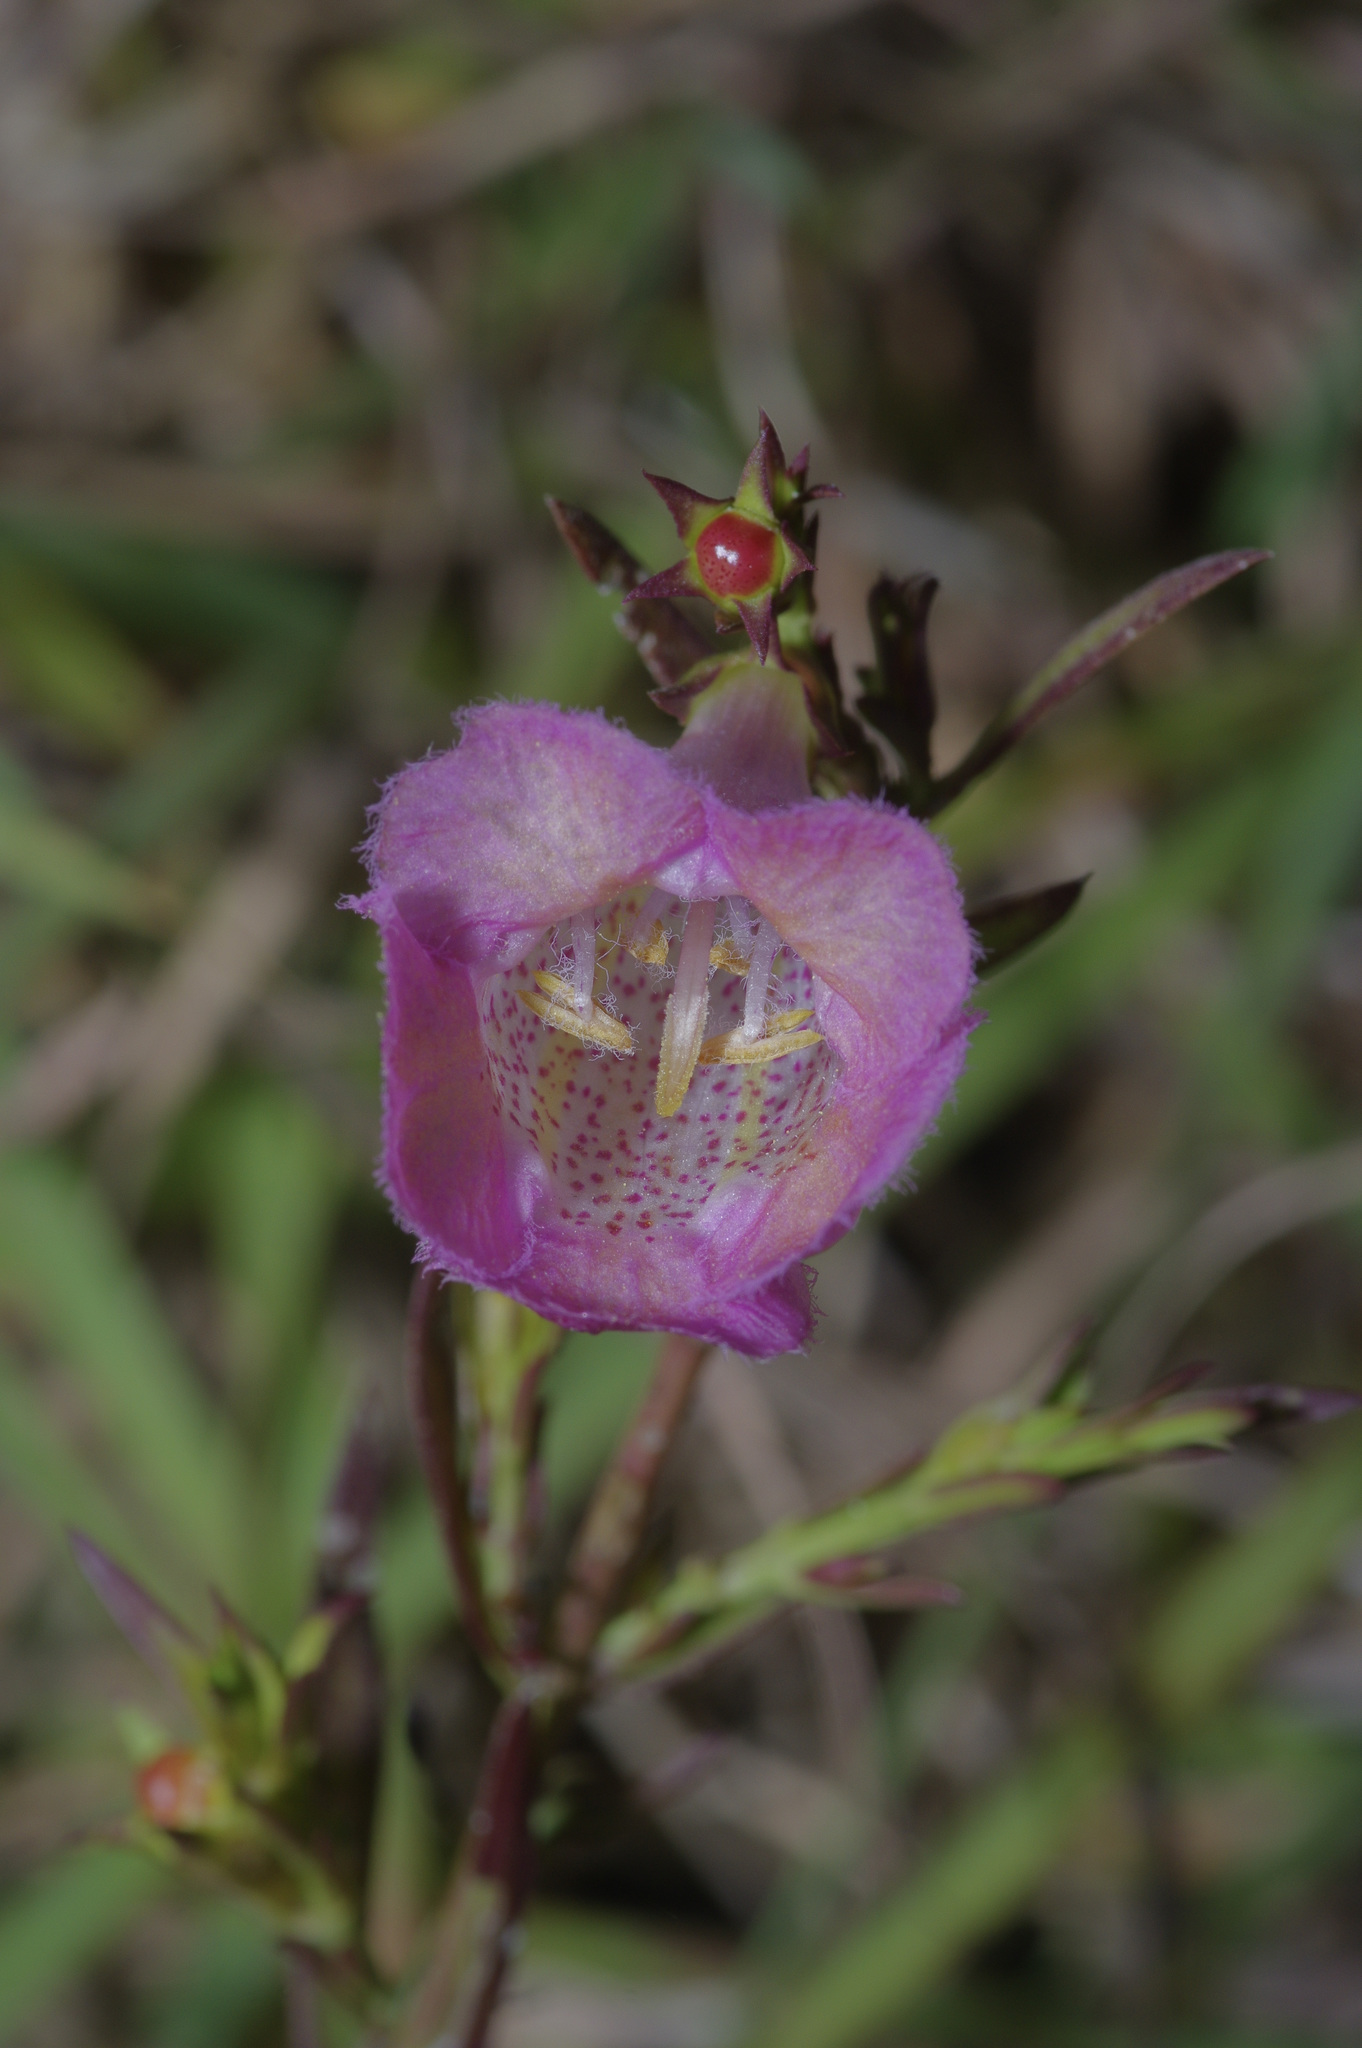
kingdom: Plantae
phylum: Tracheophyta
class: Magnoliopsida
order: Lamiales
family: Orobanchaceae
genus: Agalinis
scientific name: Agalinis heterophylla
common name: Prairie agalinis
